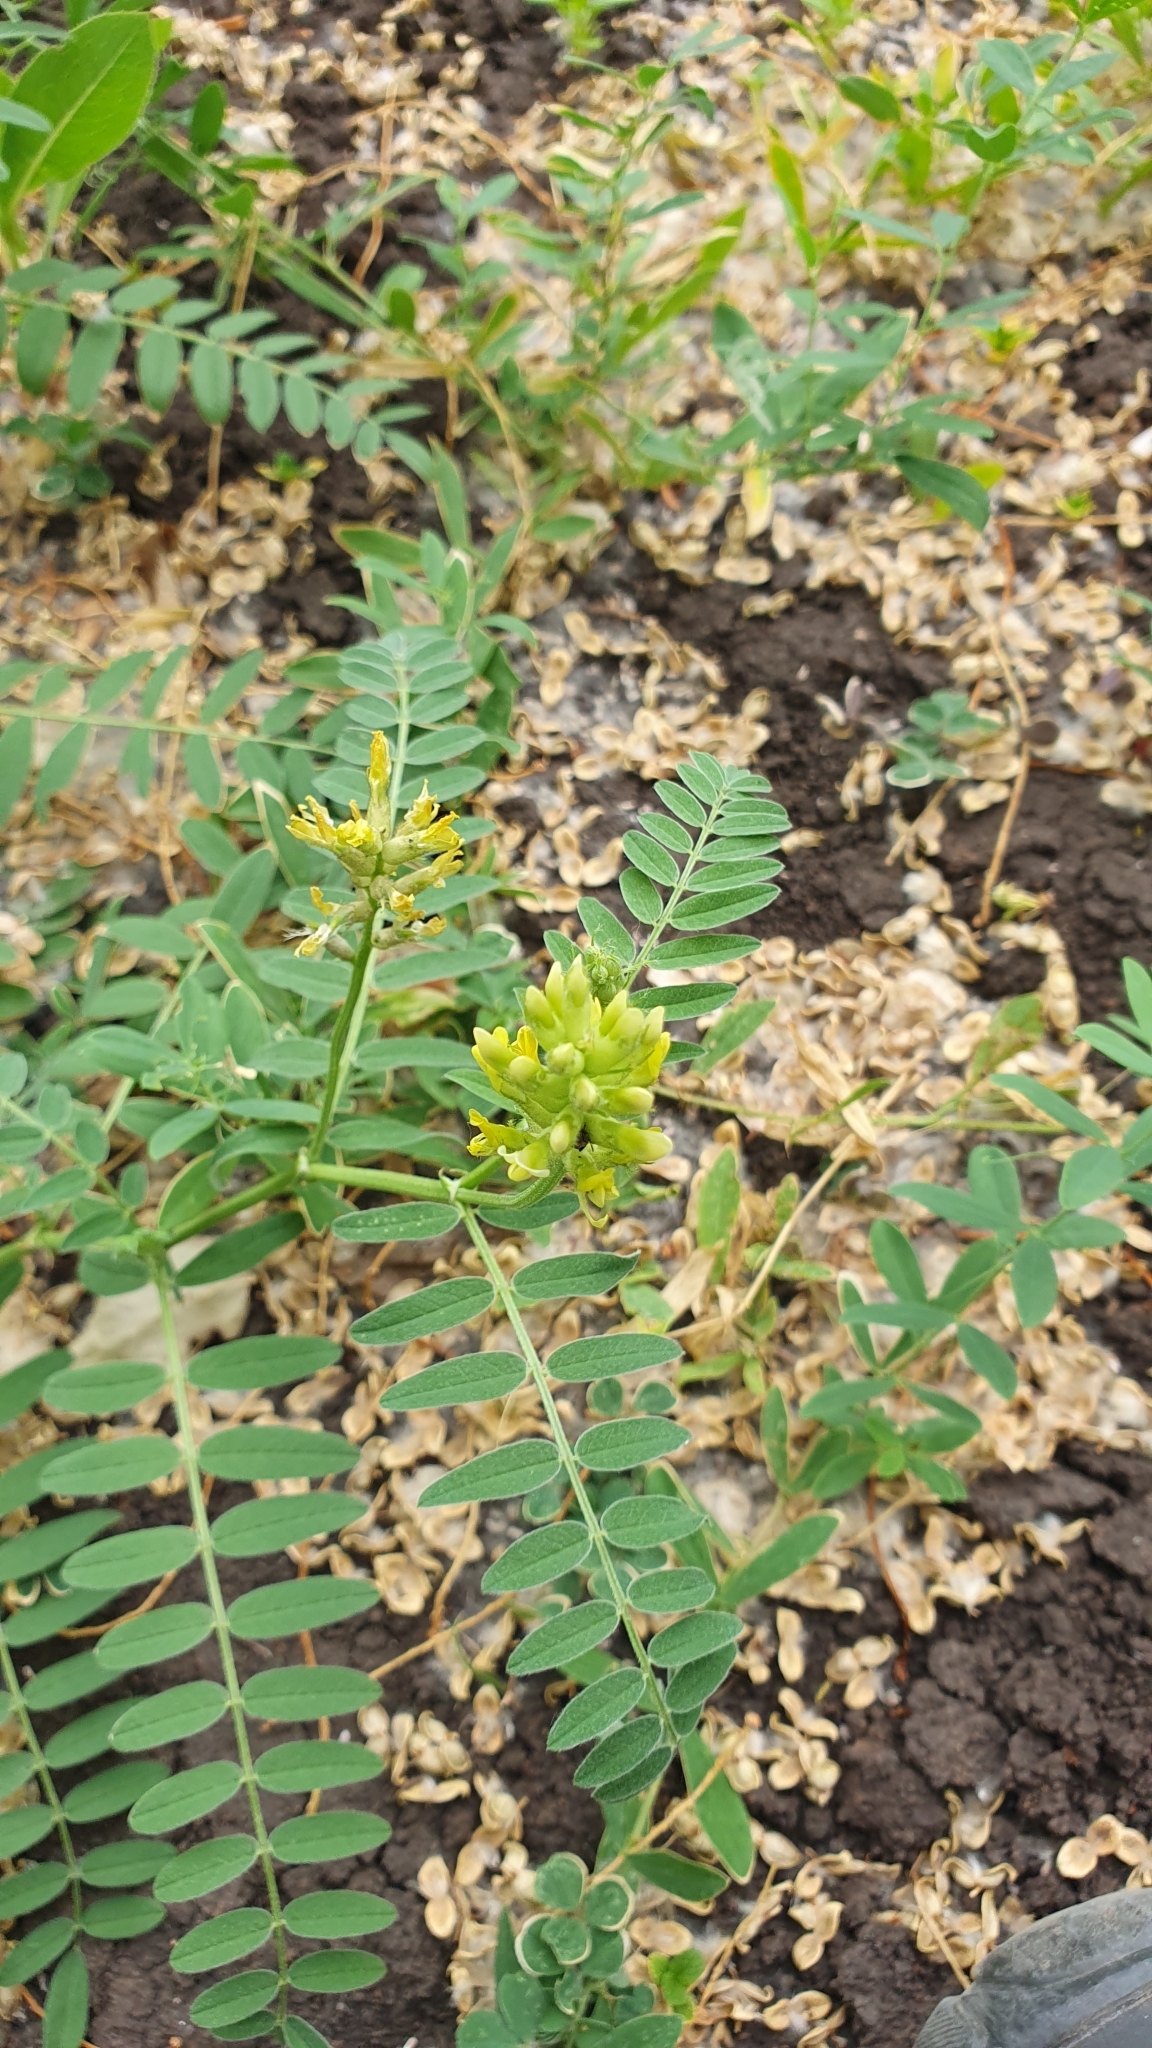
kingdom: Plantae
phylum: Tracheophyta
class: Magnoliopsida
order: Fabales
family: Fabaceae
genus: Astragalus
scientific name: Astragalus cicer
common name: Chick-pea milk-vetch
